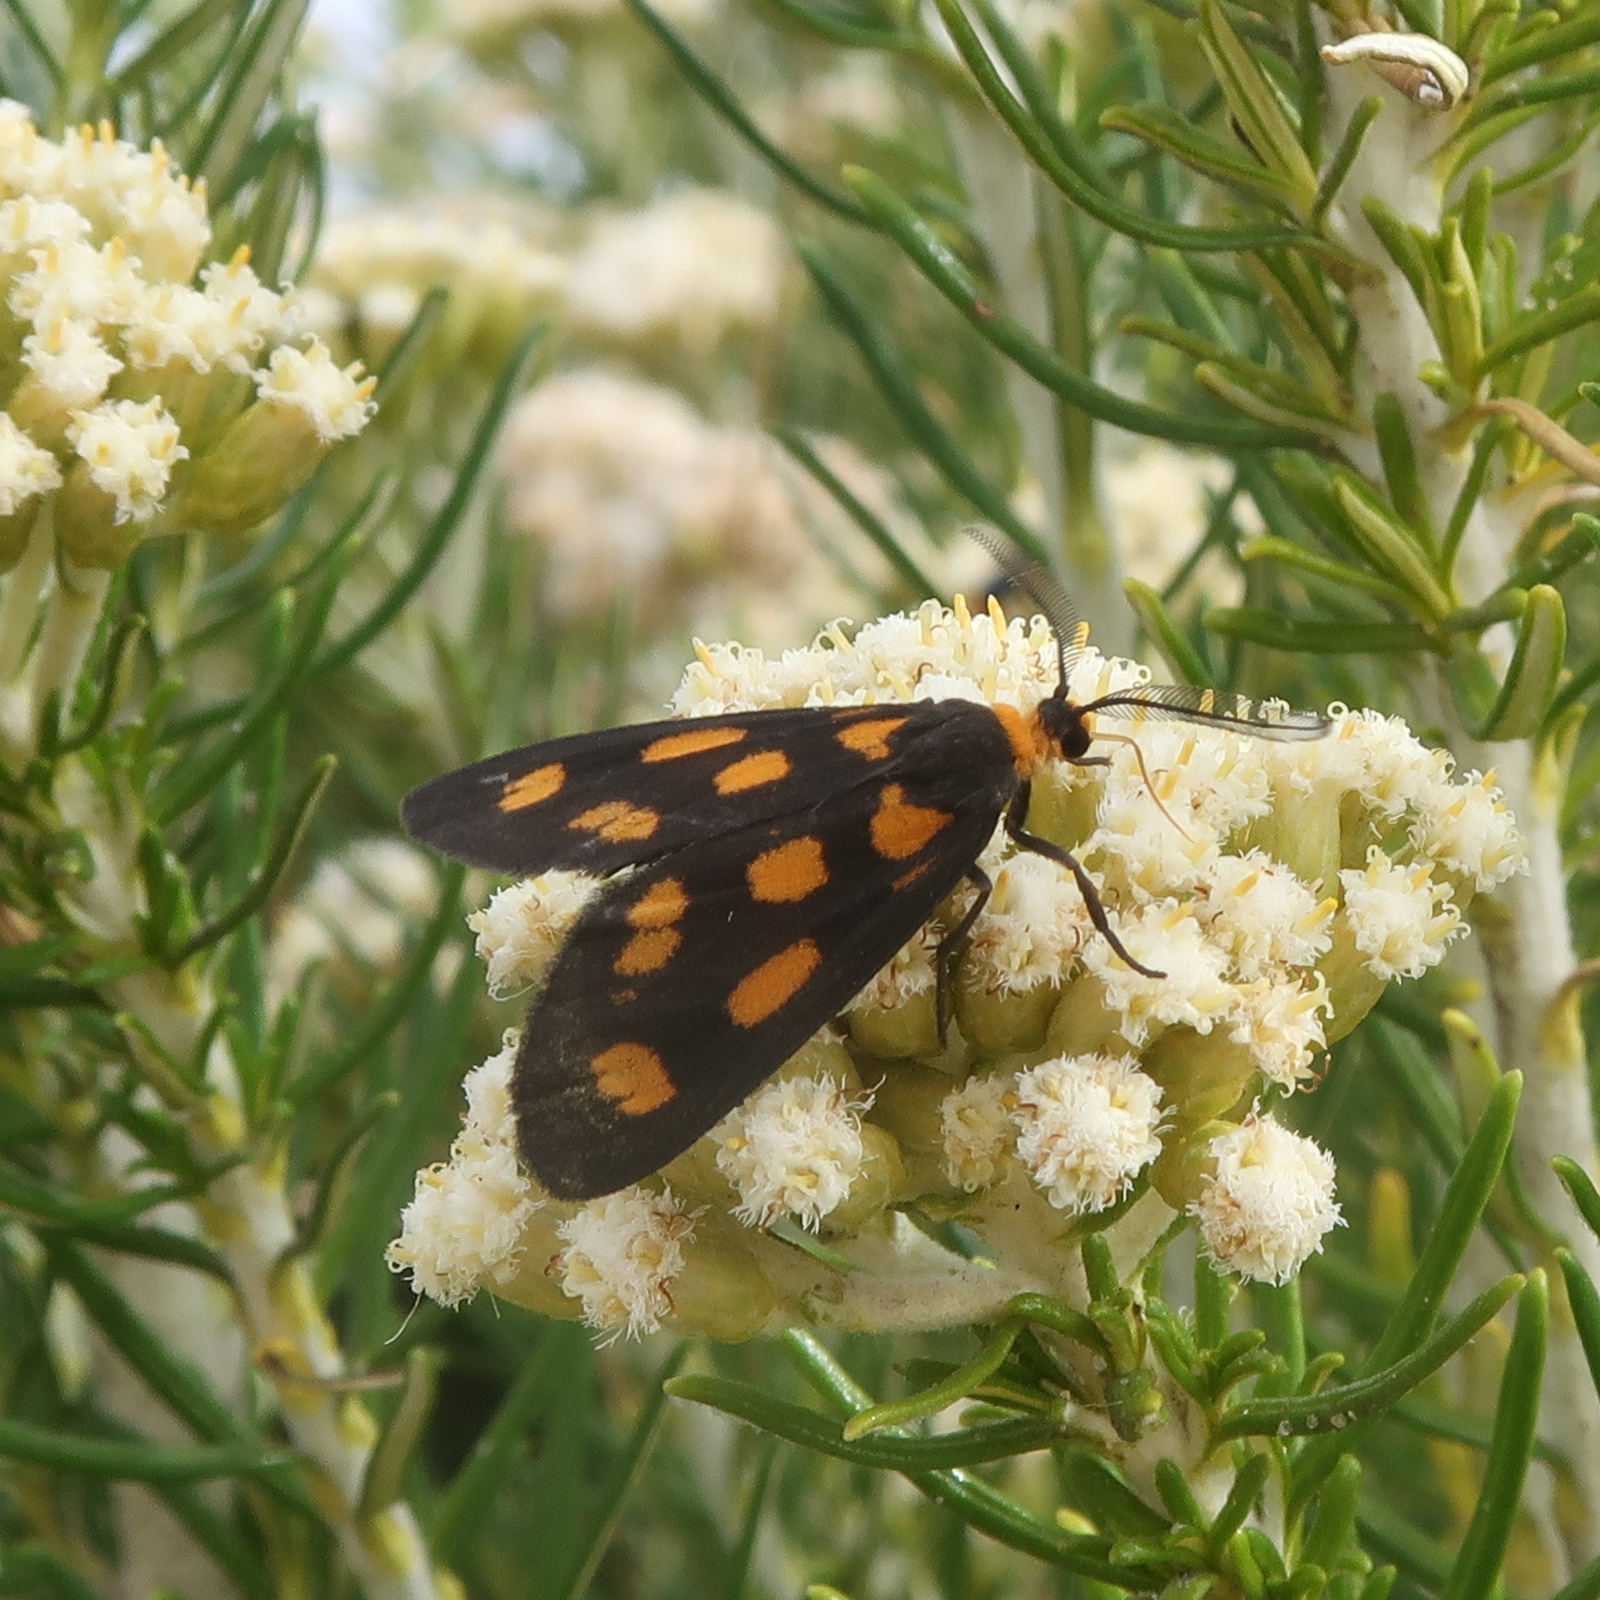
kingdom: Animalia
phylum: Arthropoda
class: Insecta
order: Lepidoptera
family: Erebidae
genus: Asura
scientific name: Asura cervicalis
